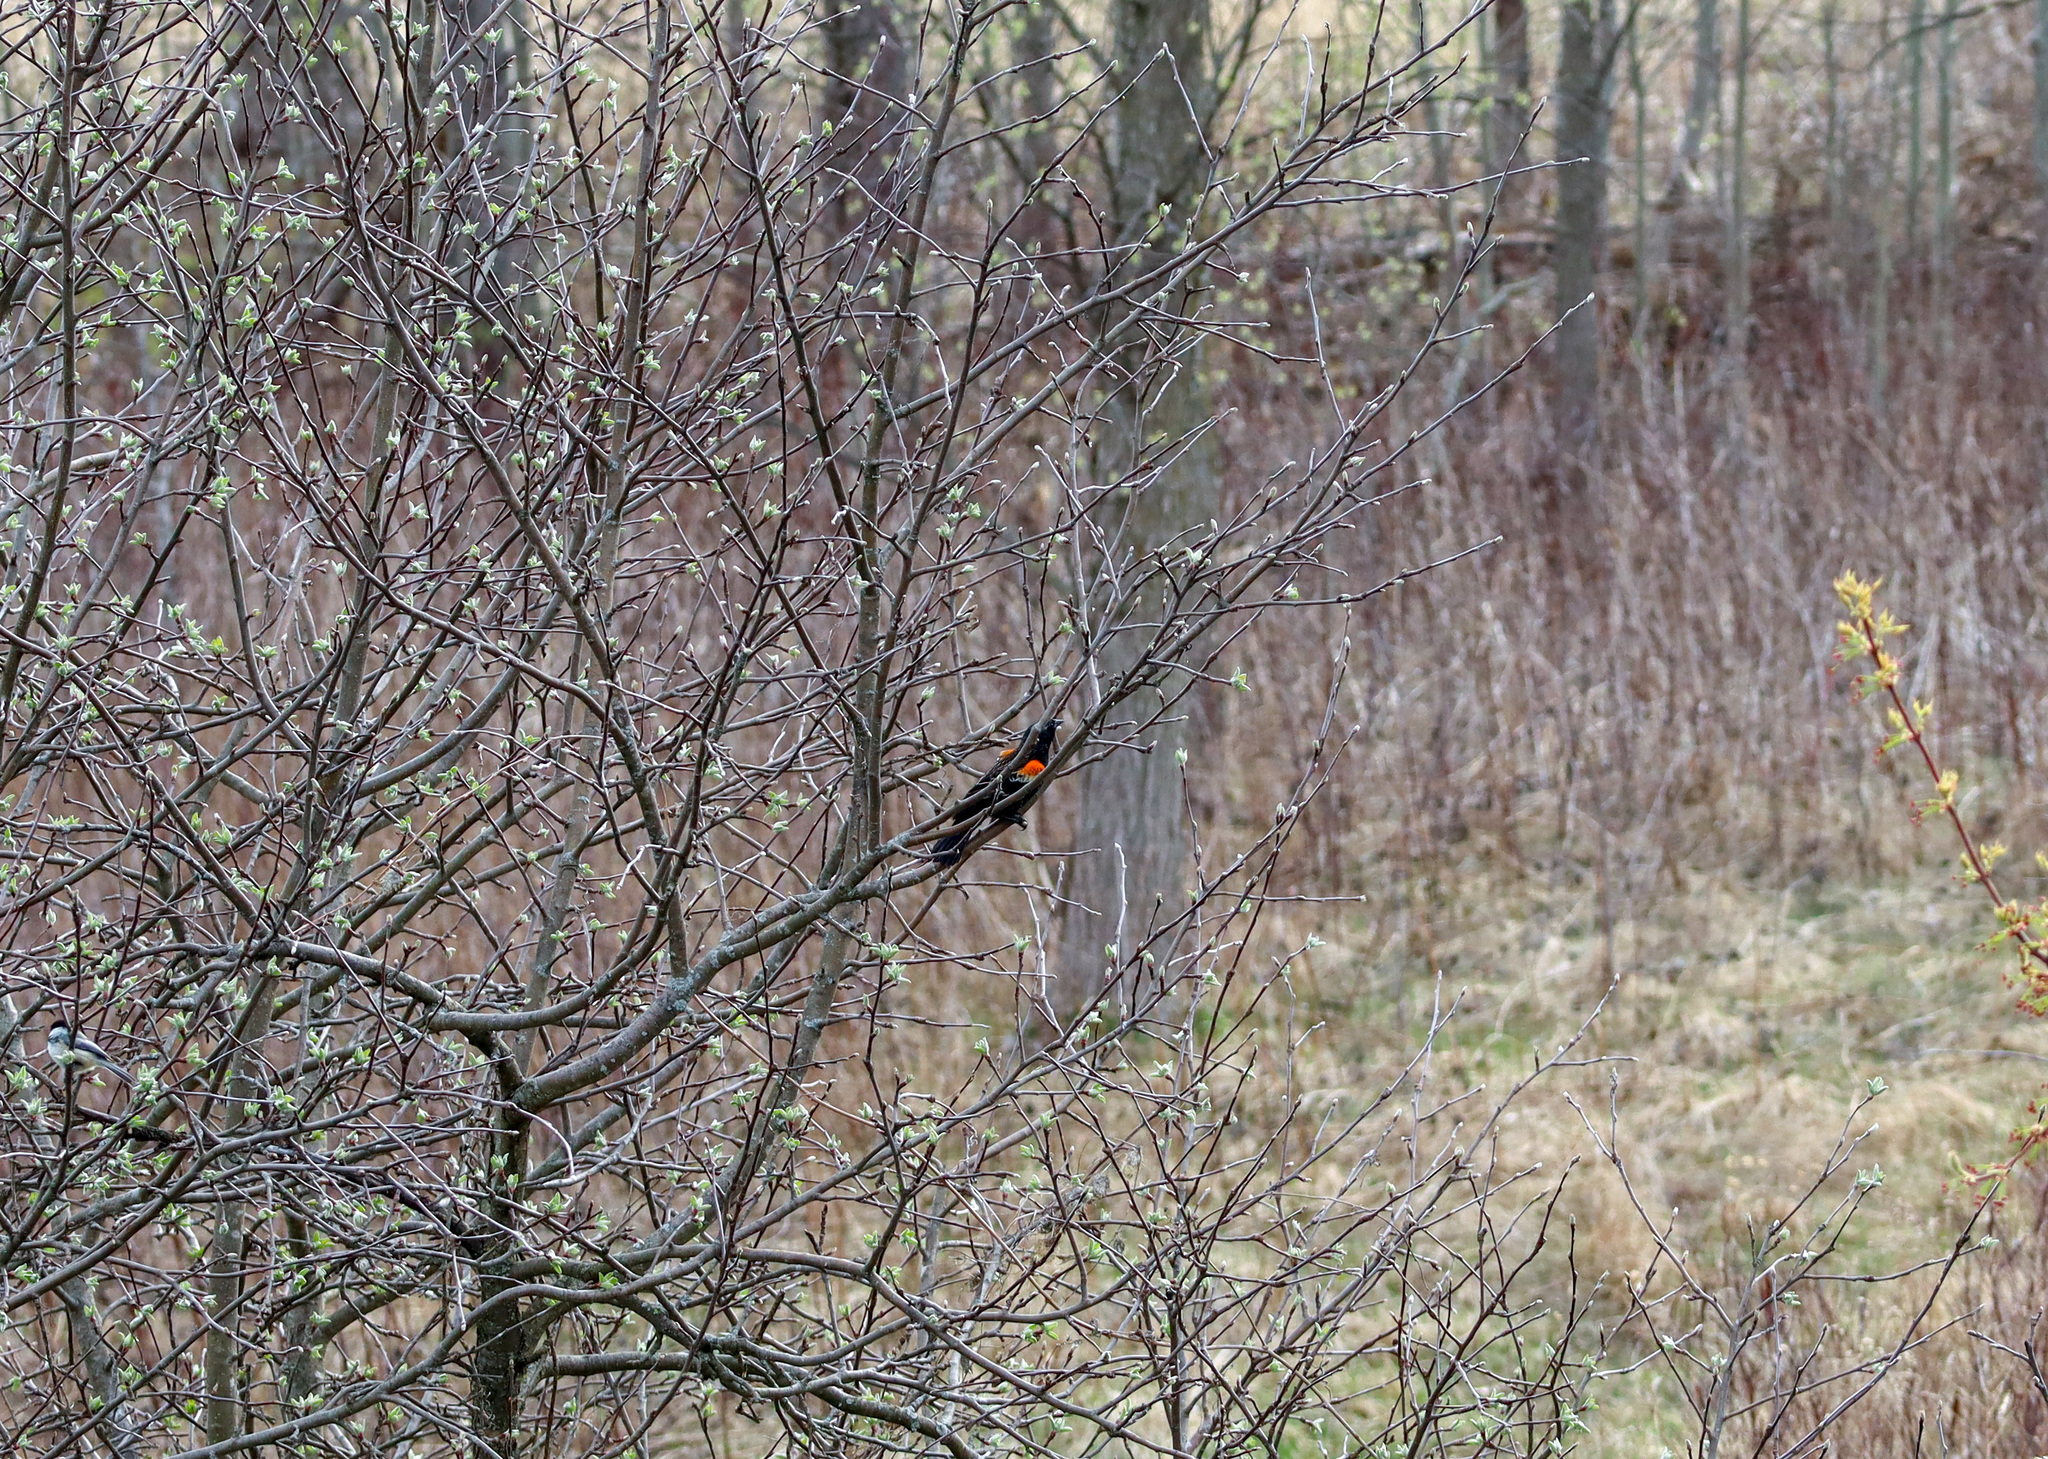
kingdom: Animalia
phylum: Chordata
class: Aves
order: Passeriformes
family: Icteridae
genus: Agelaius
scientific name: Agelaius phoeniceus
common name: Red-winged blackbird
